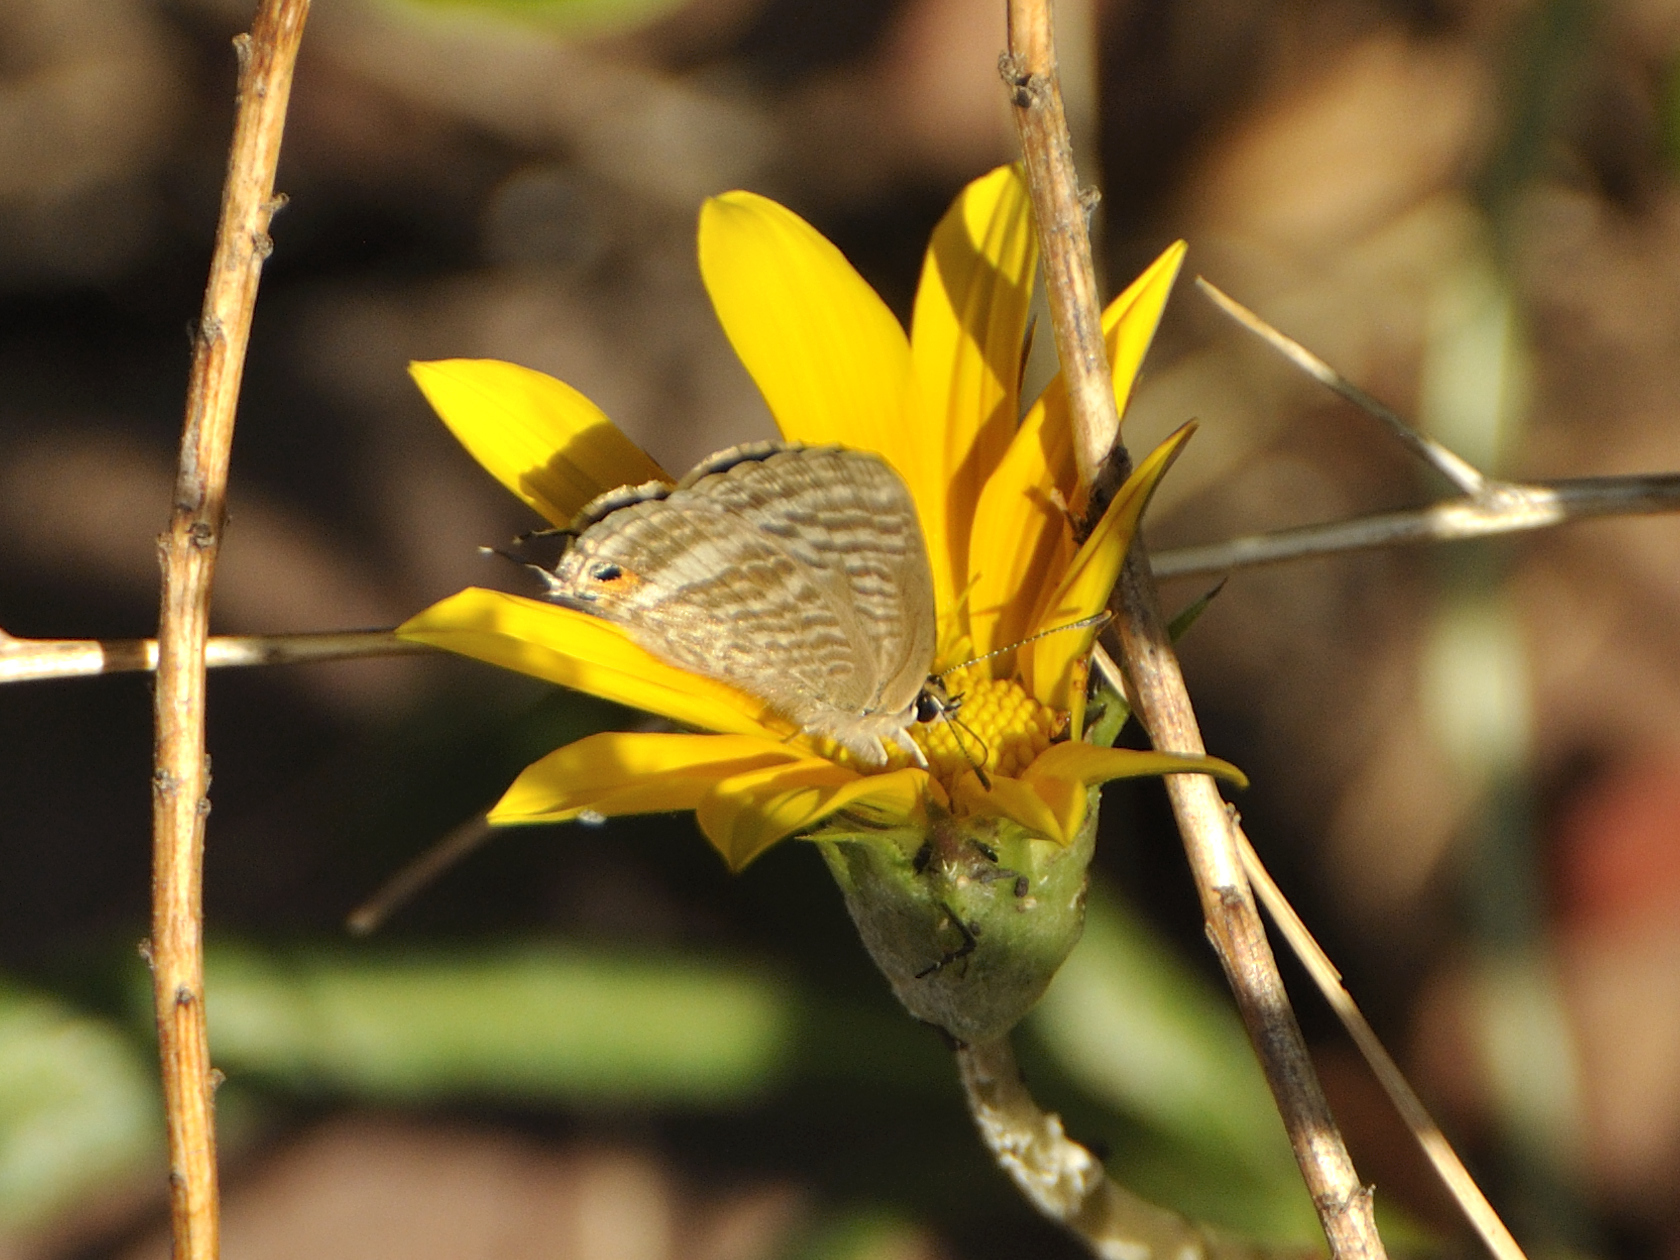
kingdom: Animalia
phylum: Arthropoda
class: Insecta
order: Lepidoptera
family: Lycaenidae
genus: Lampides
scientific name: Lampides boeticus
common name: Long-tailed blue
